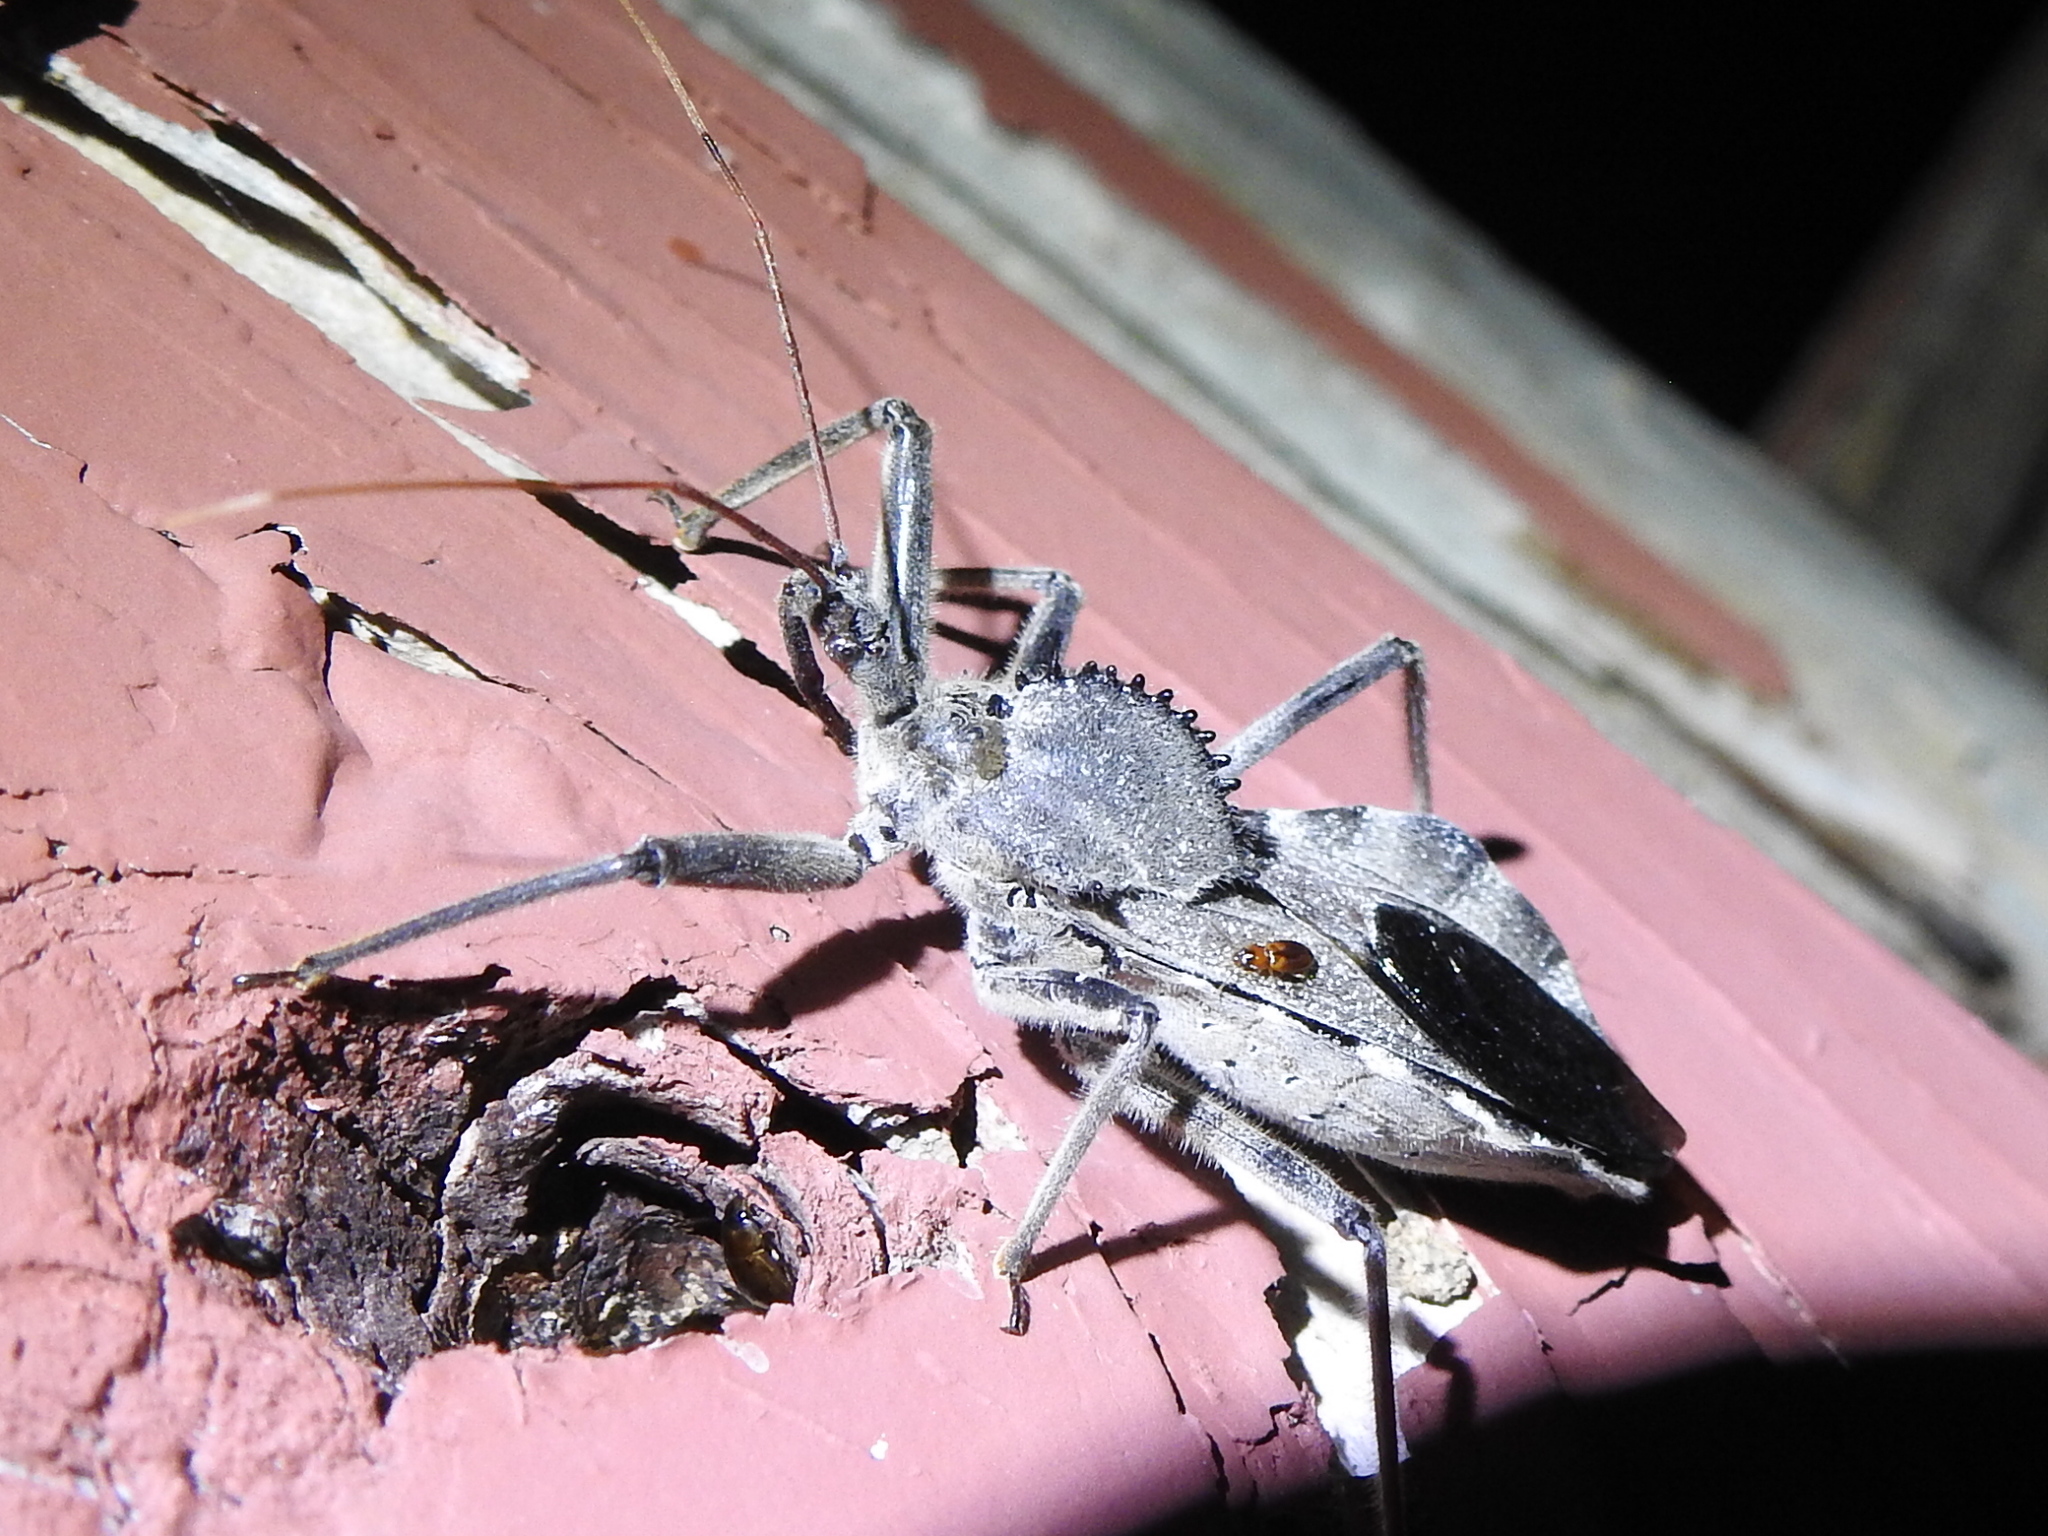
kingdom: Animalia
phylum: Arthropoda
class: Insecta
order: Hemiptera
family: Reduviidae
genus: Arilus
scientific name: Arilus cristatus
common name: North american wheel bug
